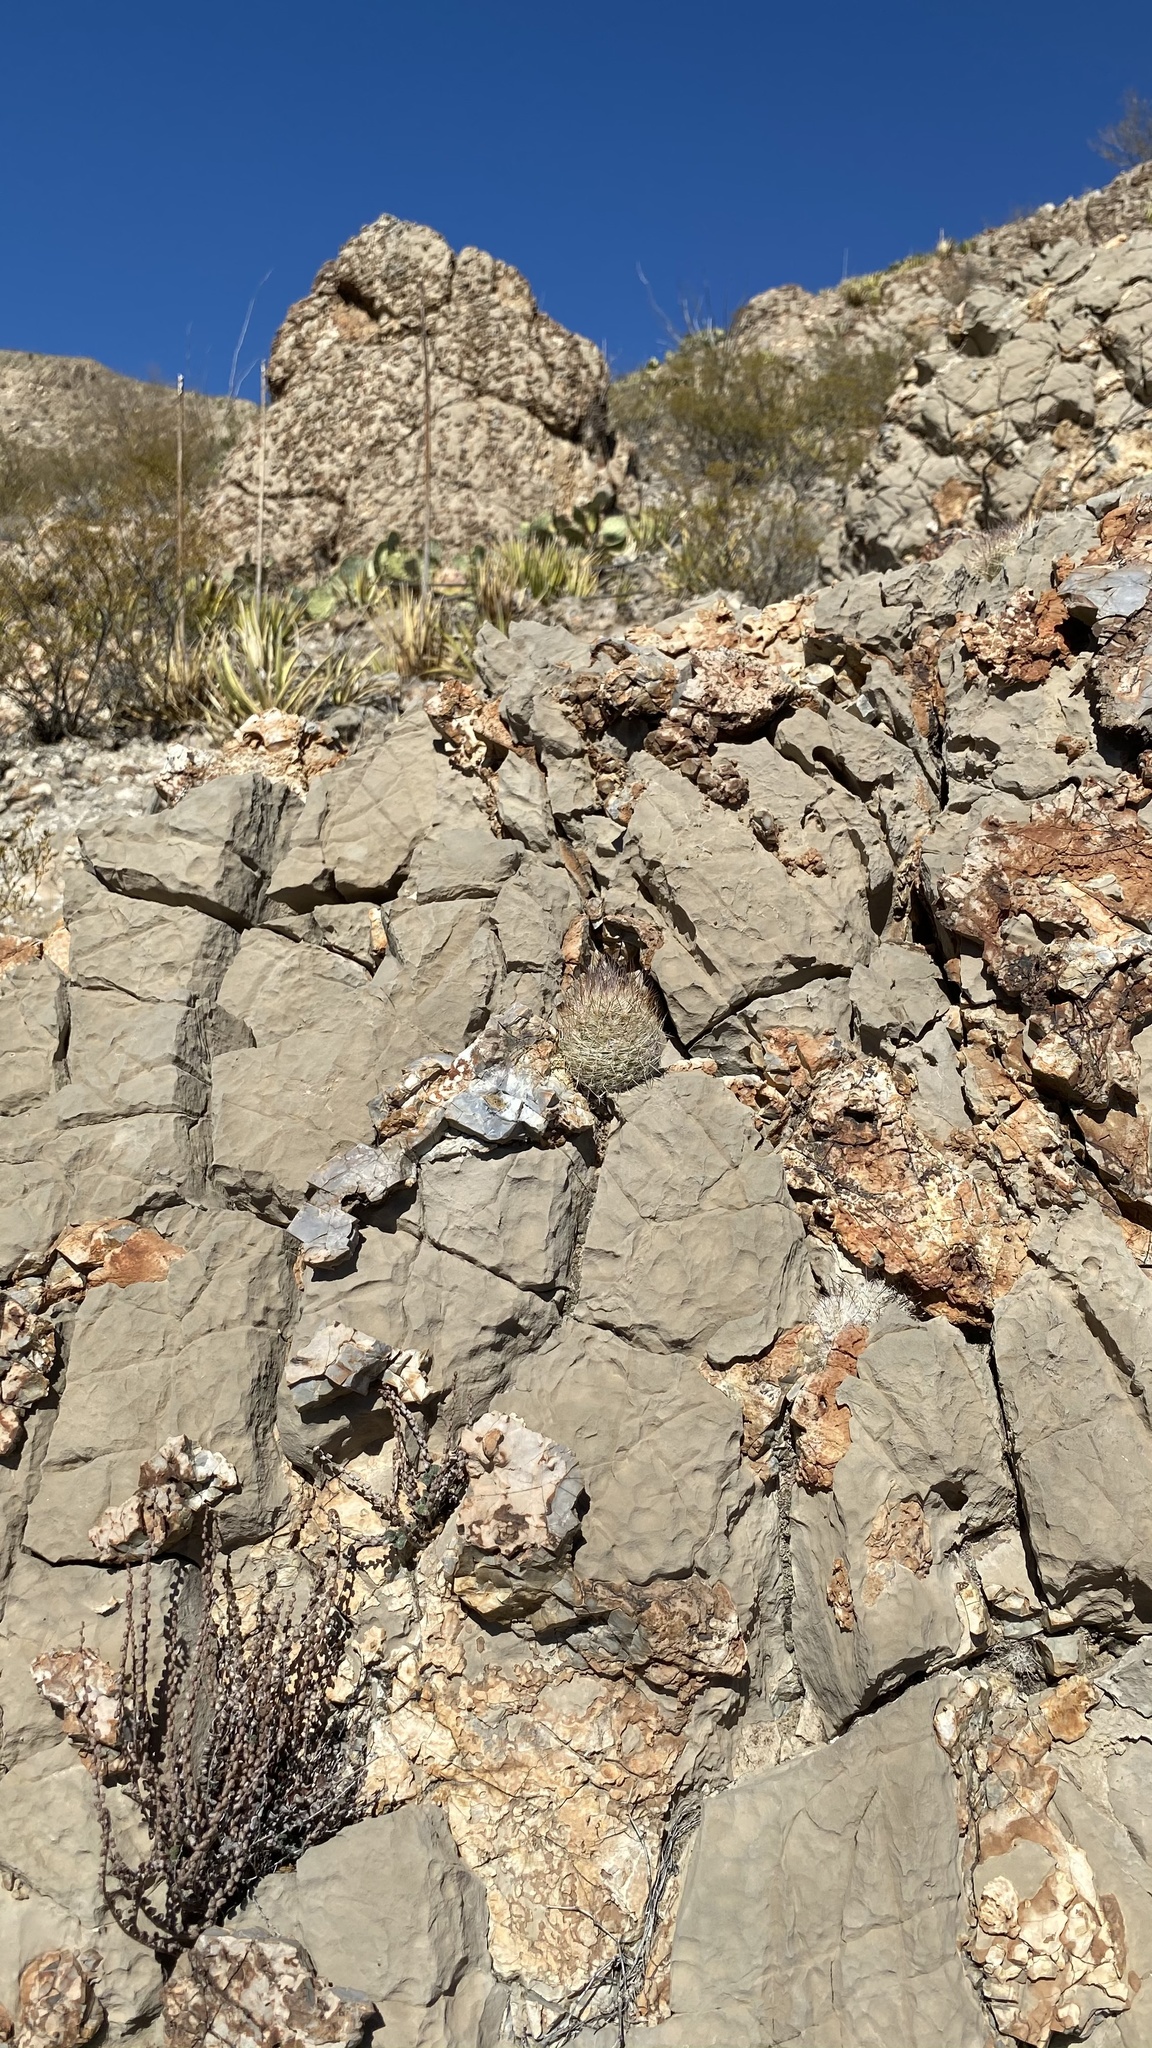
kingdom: Plantae
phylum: Tracheophyta
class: Magnoliopsida
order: Caryophyllales
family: Cactaceae
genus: Pelecyphora
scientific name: Pelecyphora tuberculosa
